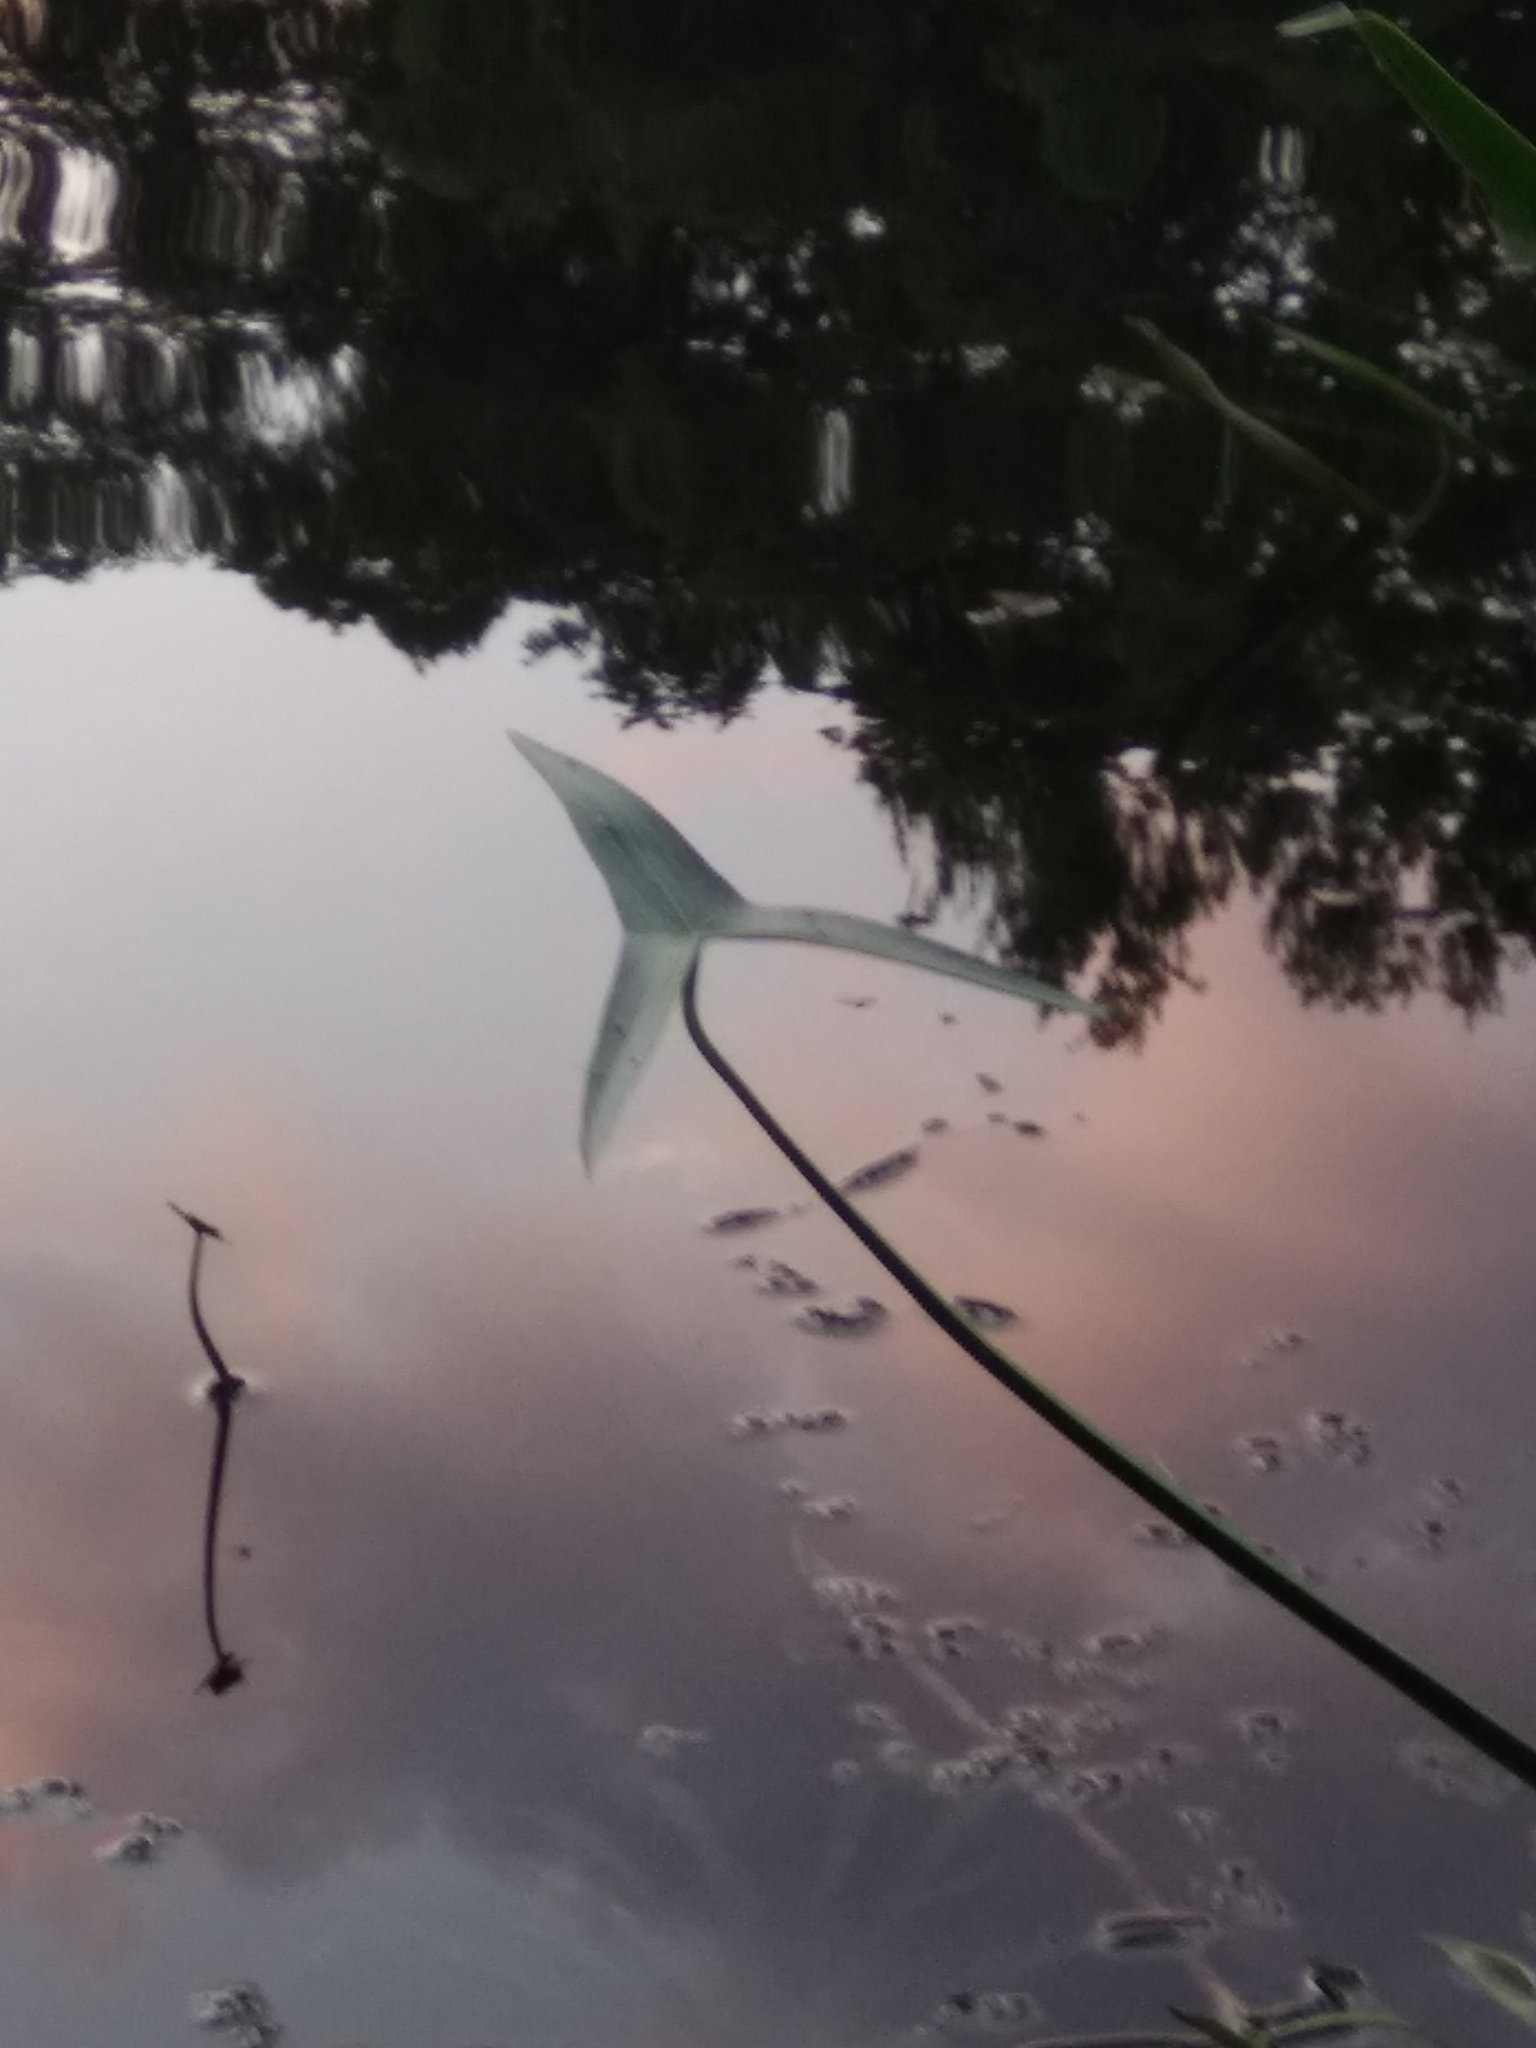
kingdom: Plantae
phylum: Tracheophyta
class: Liliopsida
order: Alismatales
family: Alismataceae
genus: Sagittaria
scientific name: Sagittaria sagittifolia
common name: Arrowhead
